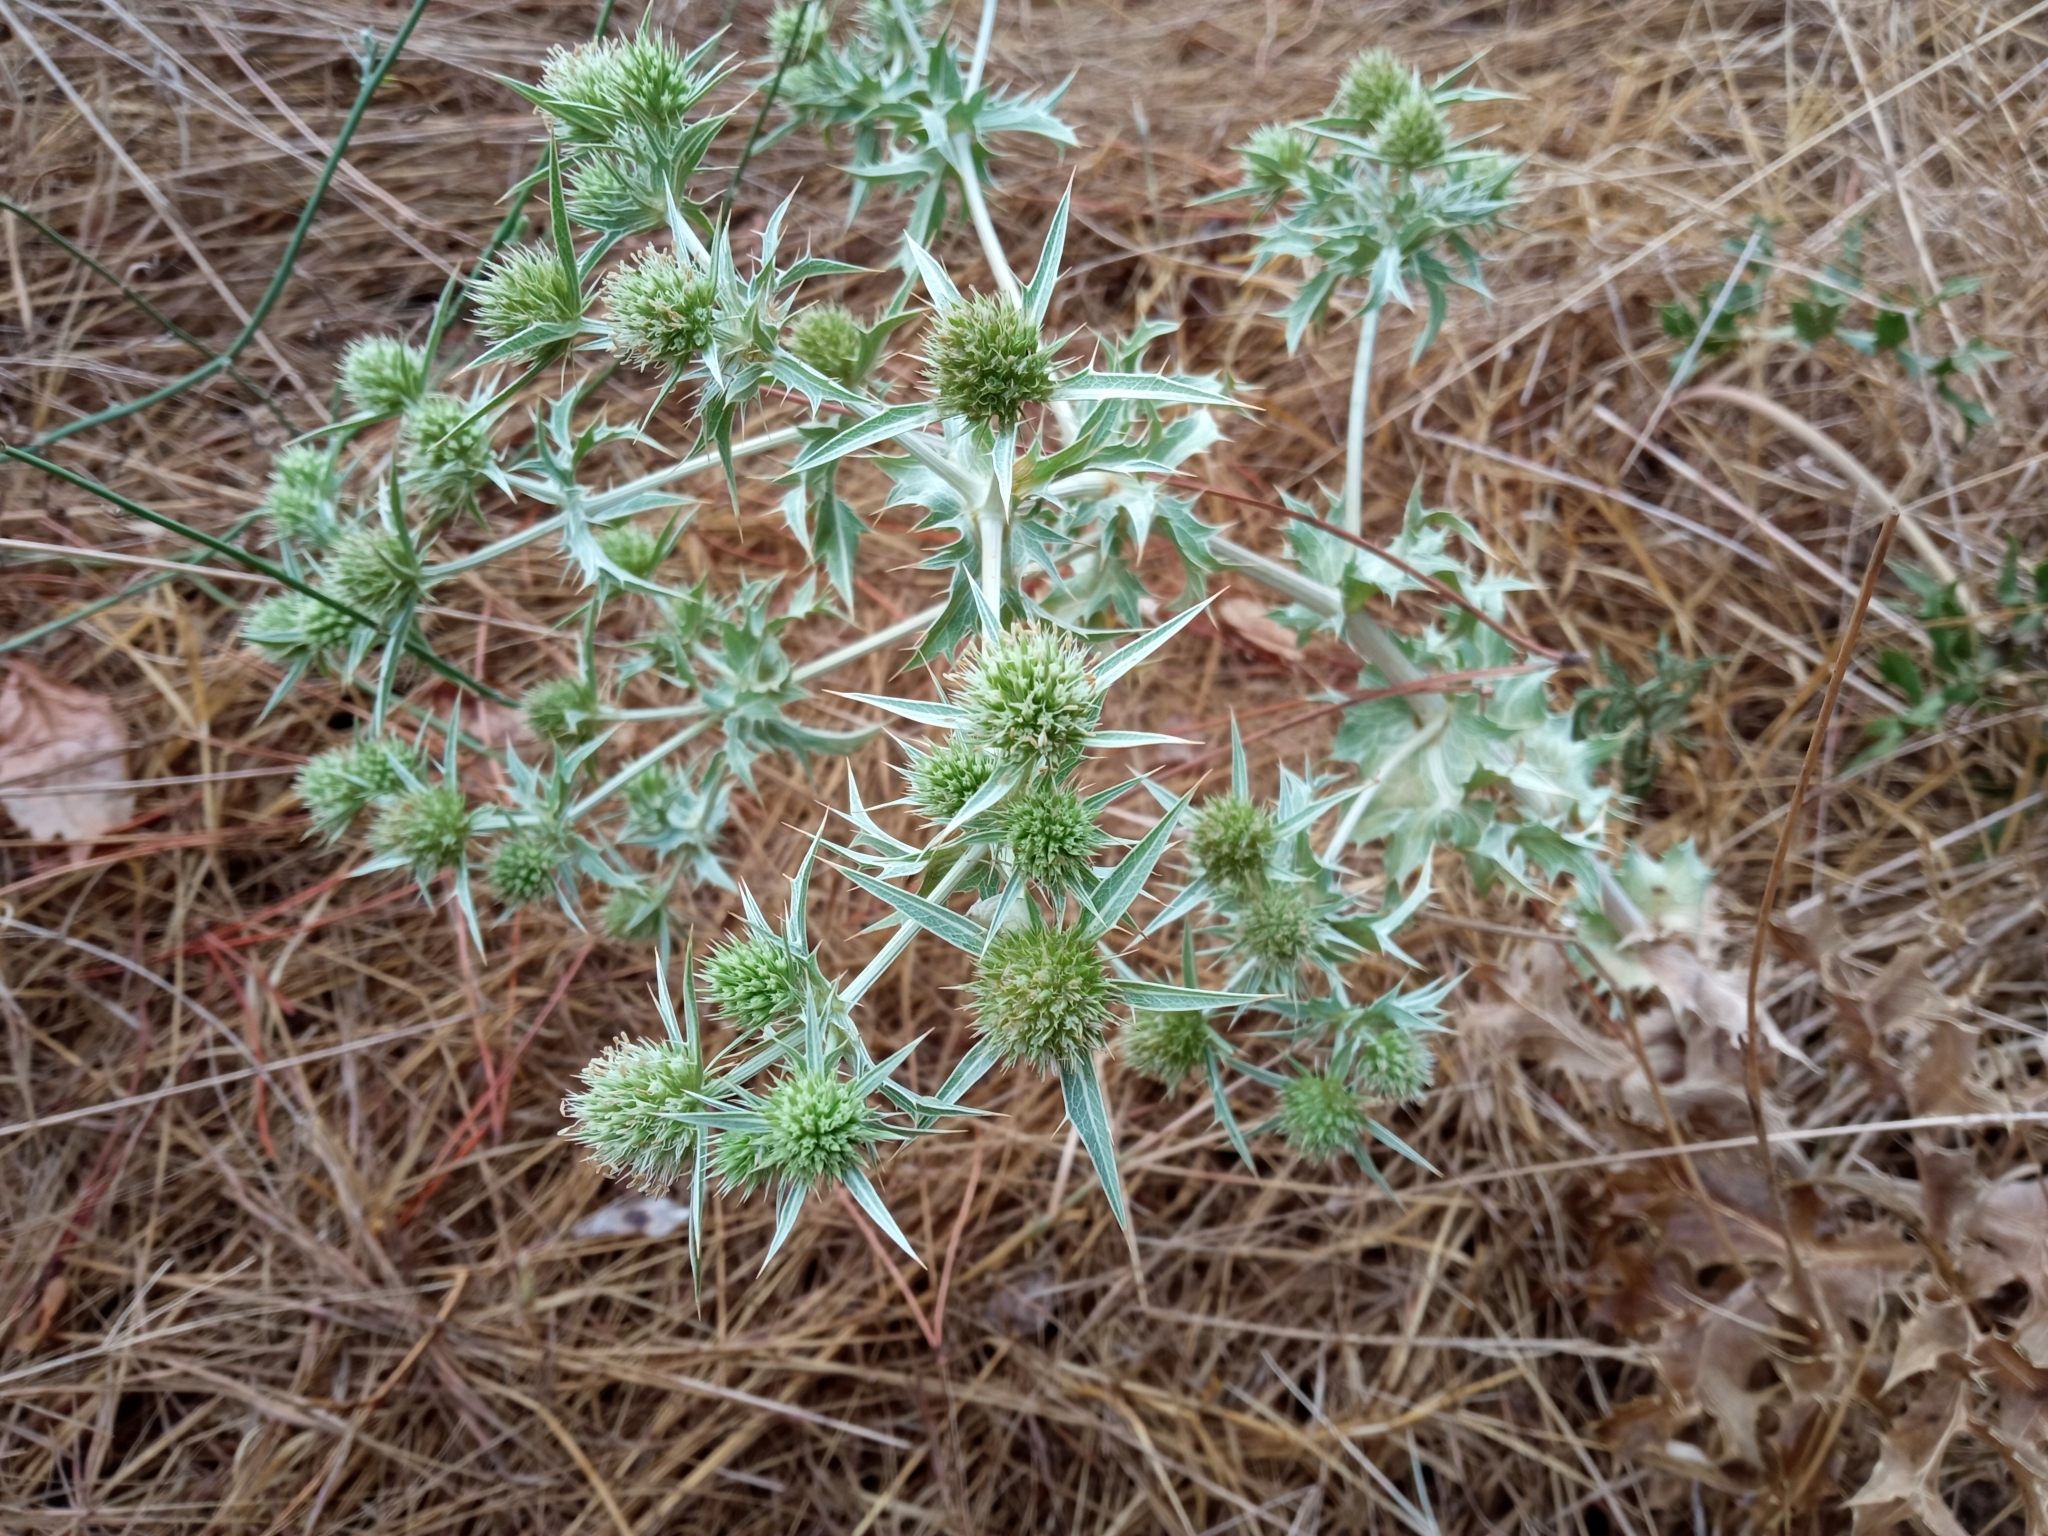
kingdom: Plantae
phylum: Tracheophyta
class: Magnoliopsida
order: Apiales
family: Apiaceae
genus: Eryngium
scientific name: Eryngium campestre
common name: Field eryngo
